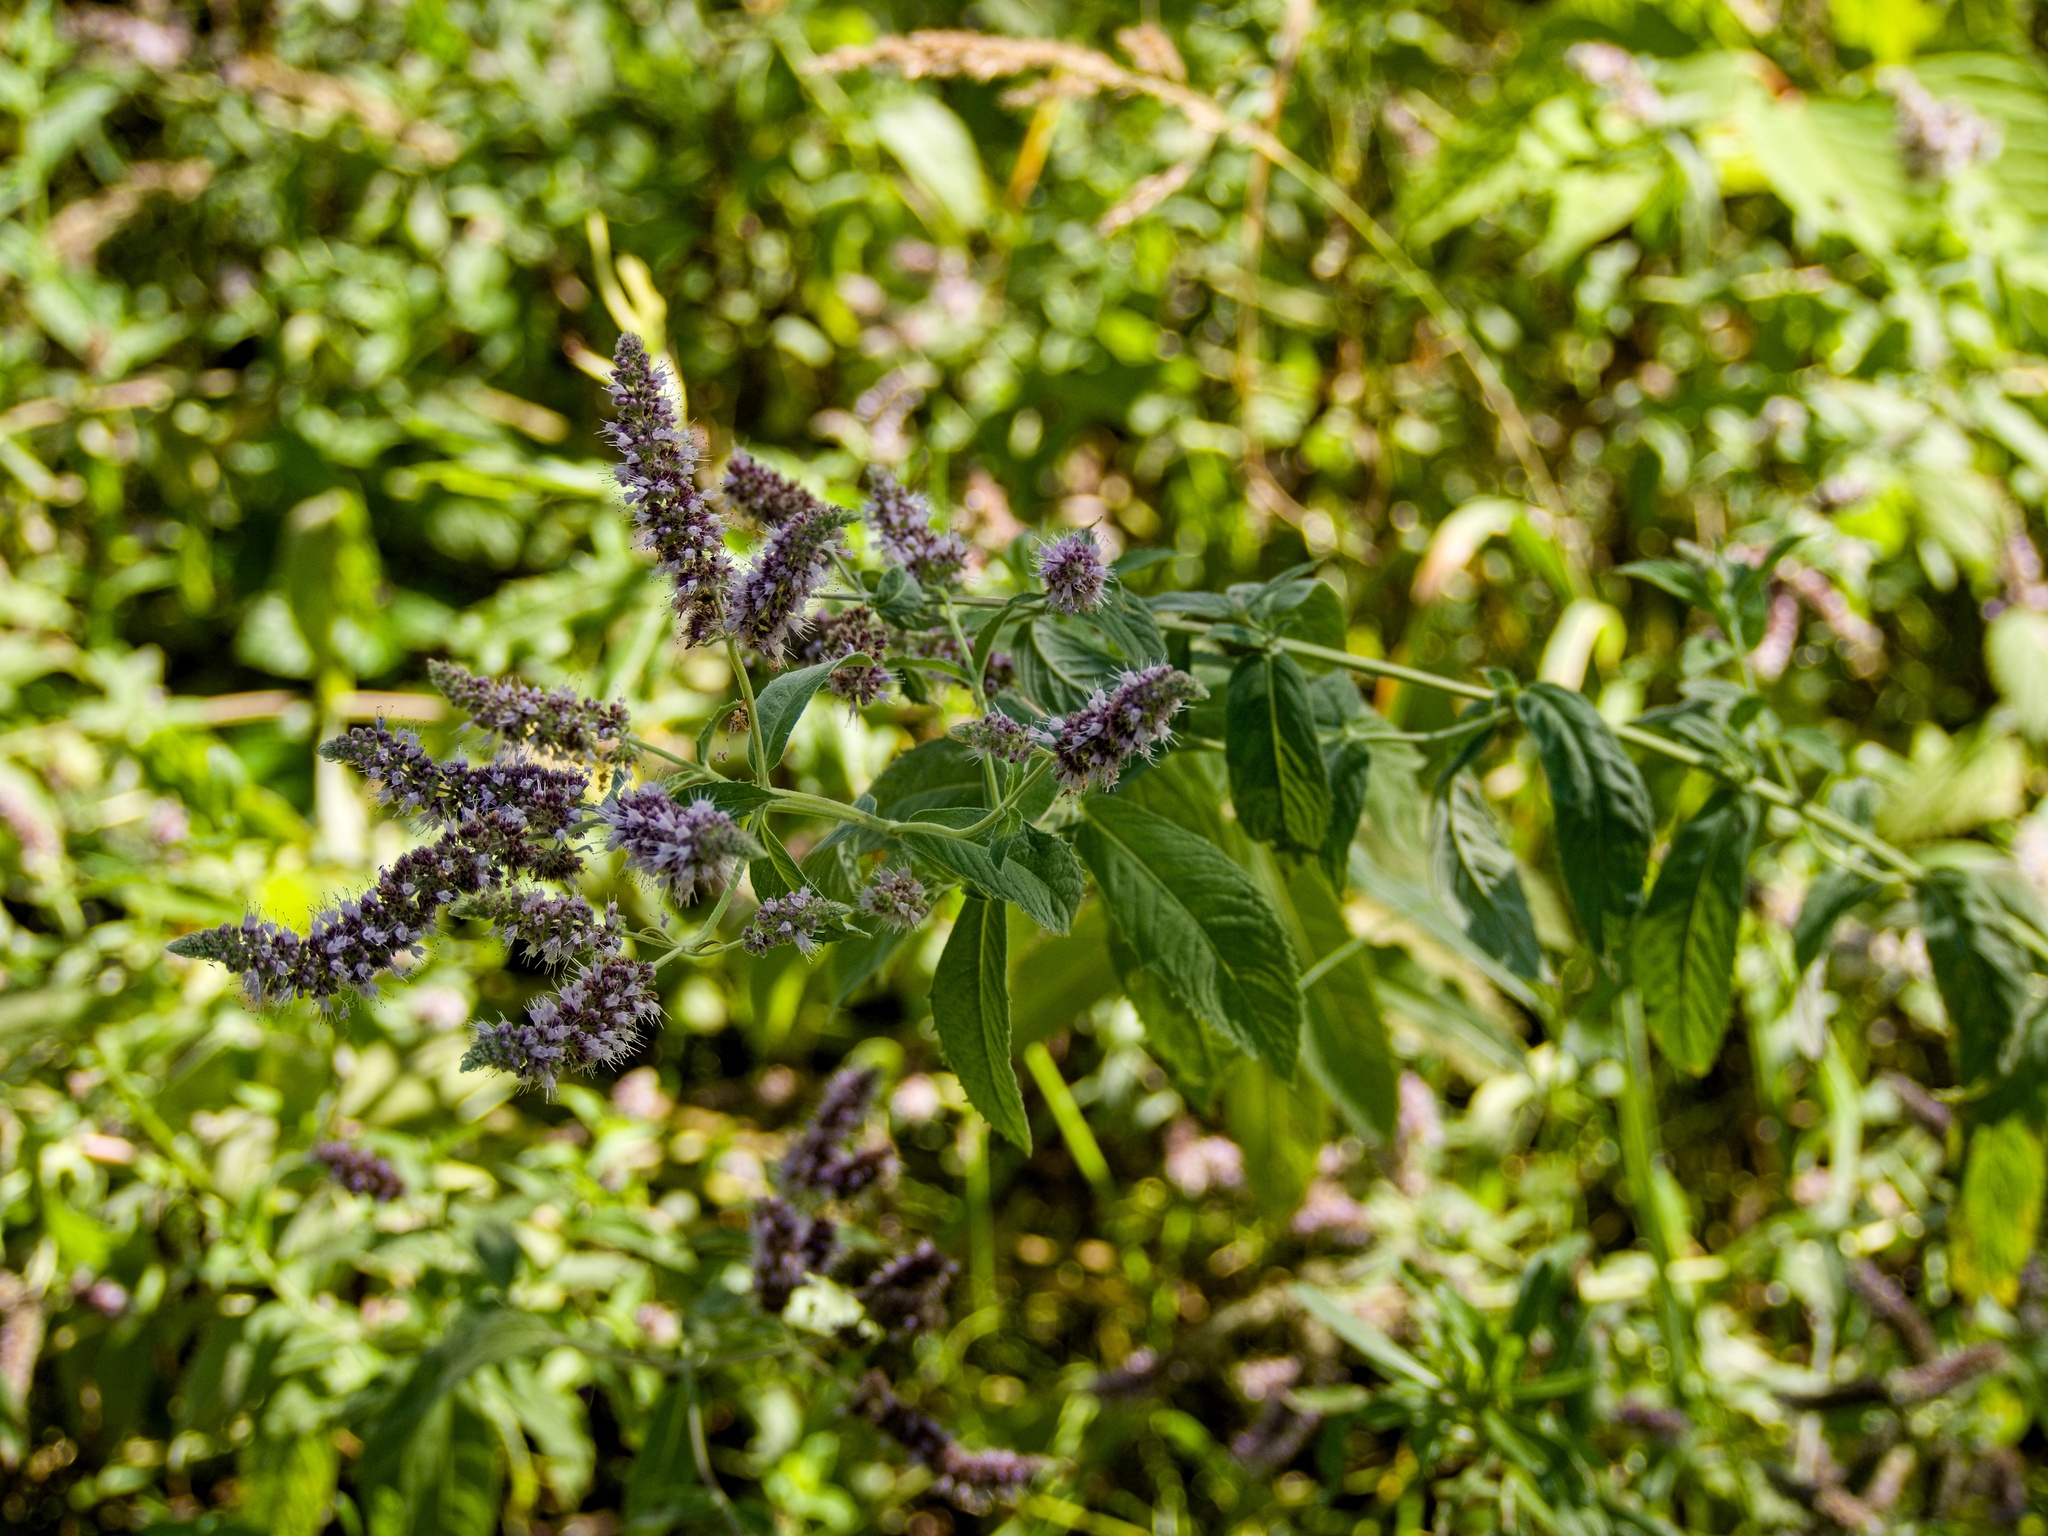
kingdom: Plantae
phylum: Tracheophyta
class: Magnoliopsida
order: Lamiales
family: Lamiaceae
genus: Mentha
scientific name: Mentha longifolia
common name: Horse mint
